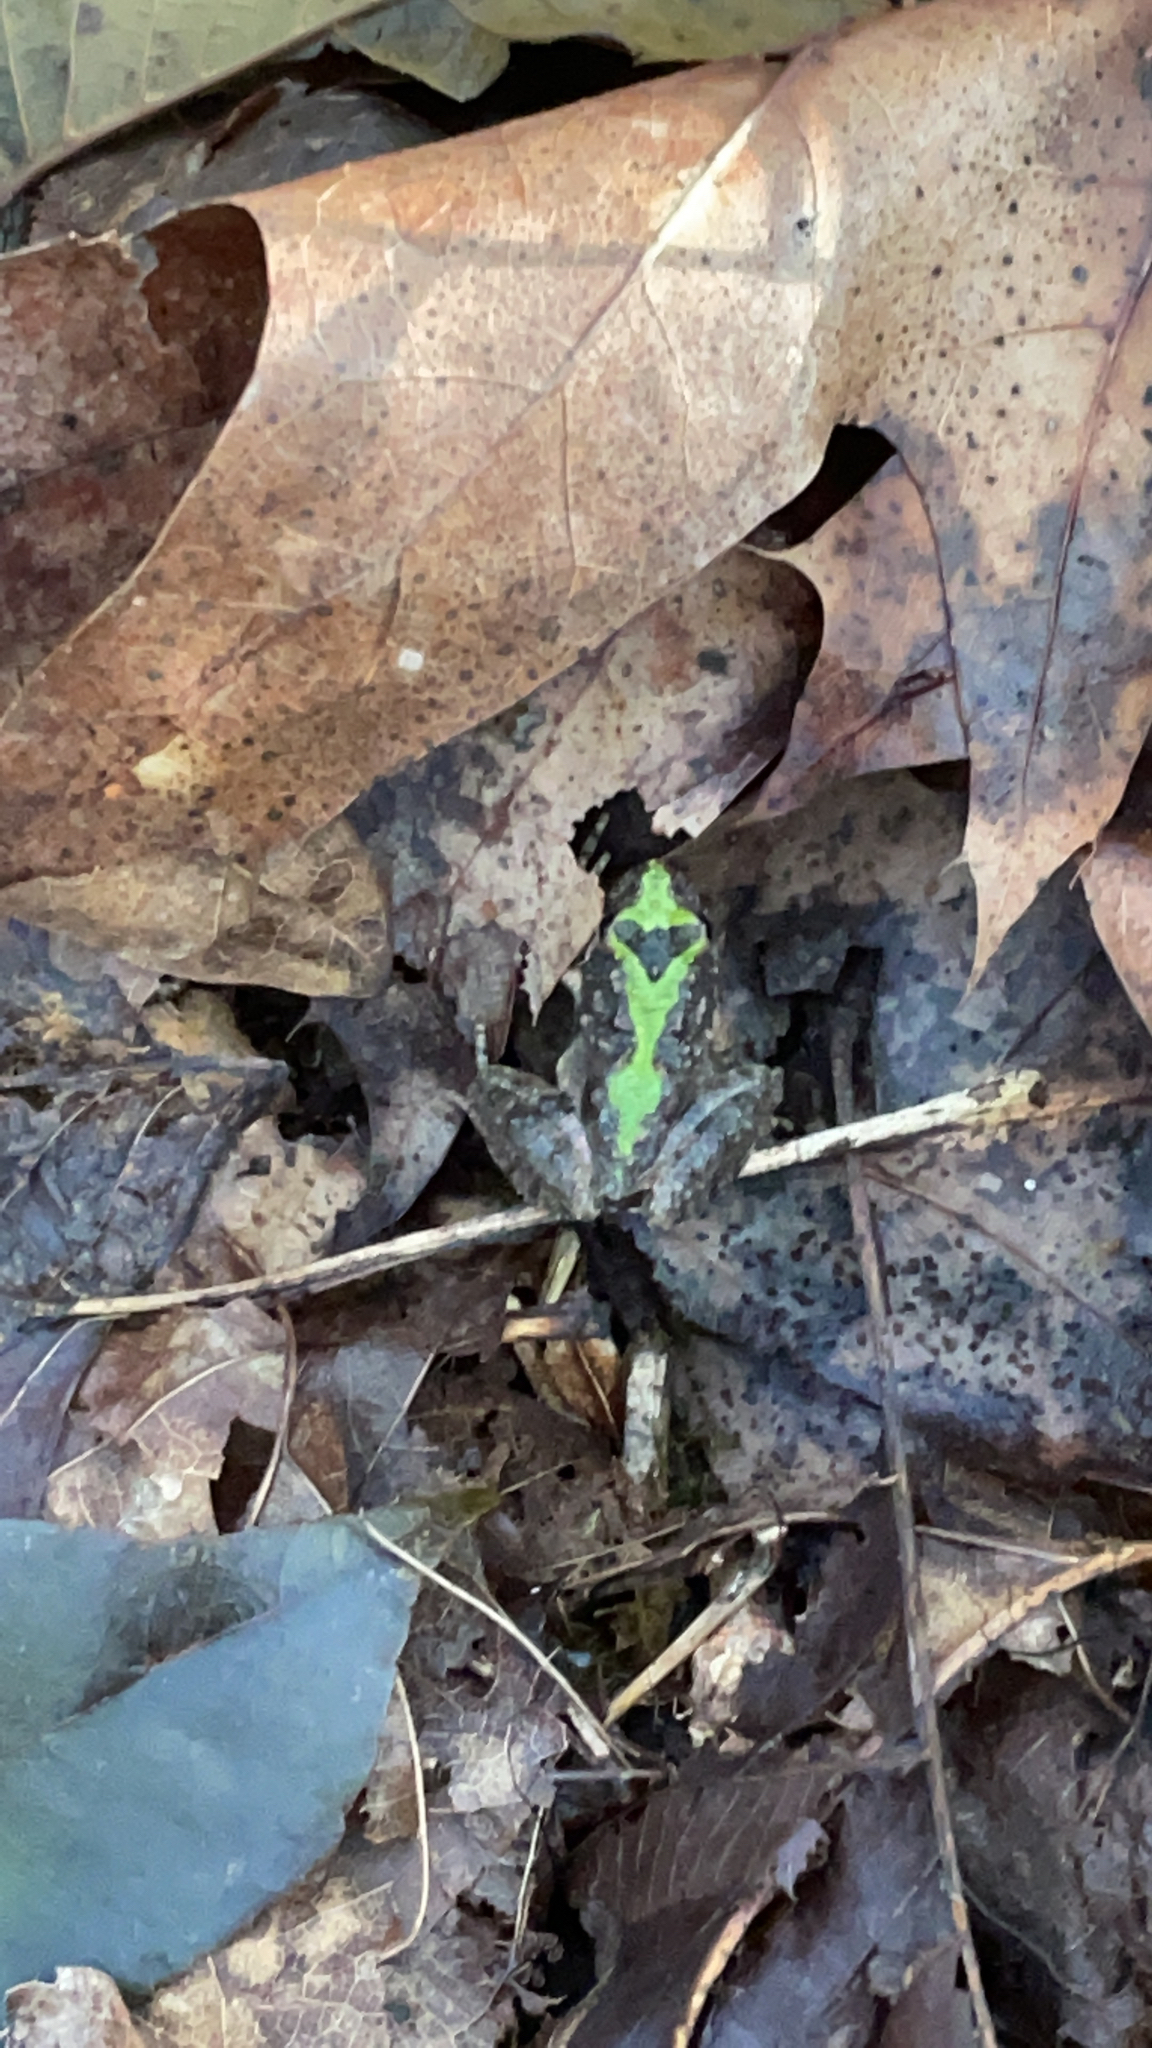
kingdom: Animalia
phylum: Chordata
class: Amphibia
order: Anura
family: Hylidae
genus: Acris
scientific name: Acris crepitans
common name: Northern cricket frog
